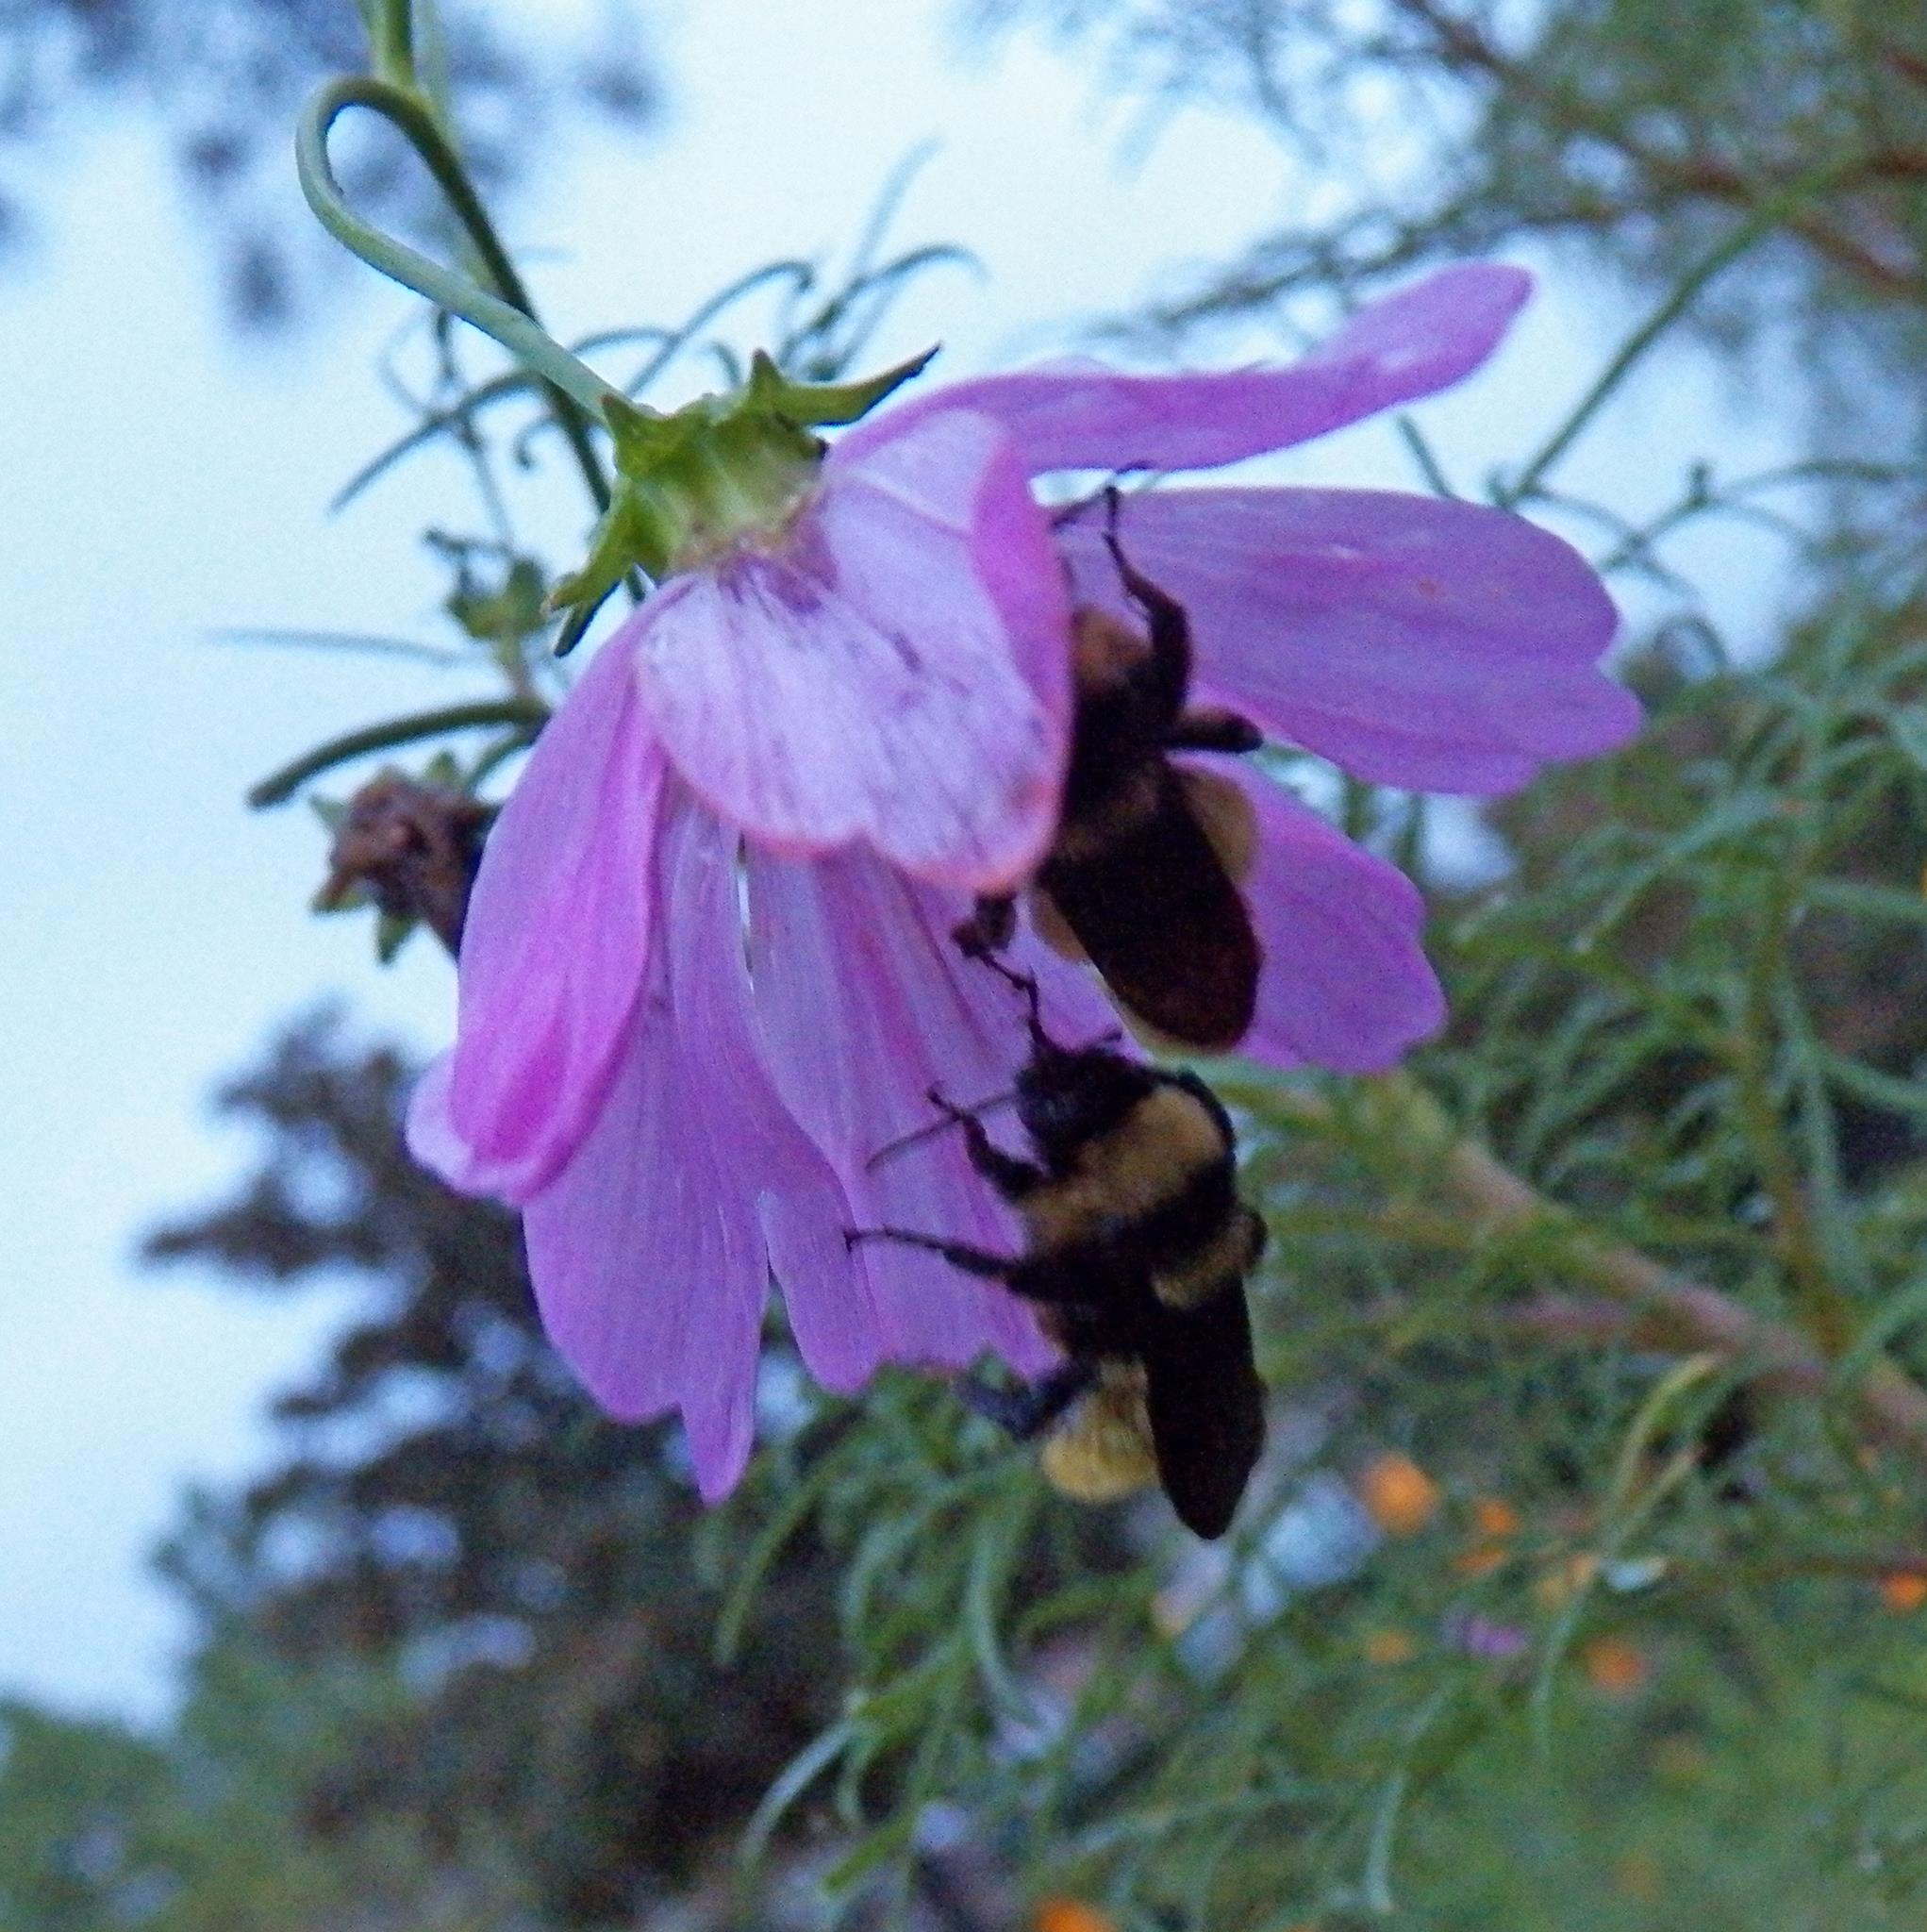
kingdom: Animalia
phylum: Arthropoda
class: Insecta
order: Hymenoptera
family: Apidae
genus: Bombus
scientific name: Bombus pensylvanicus
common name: Bumble bee
